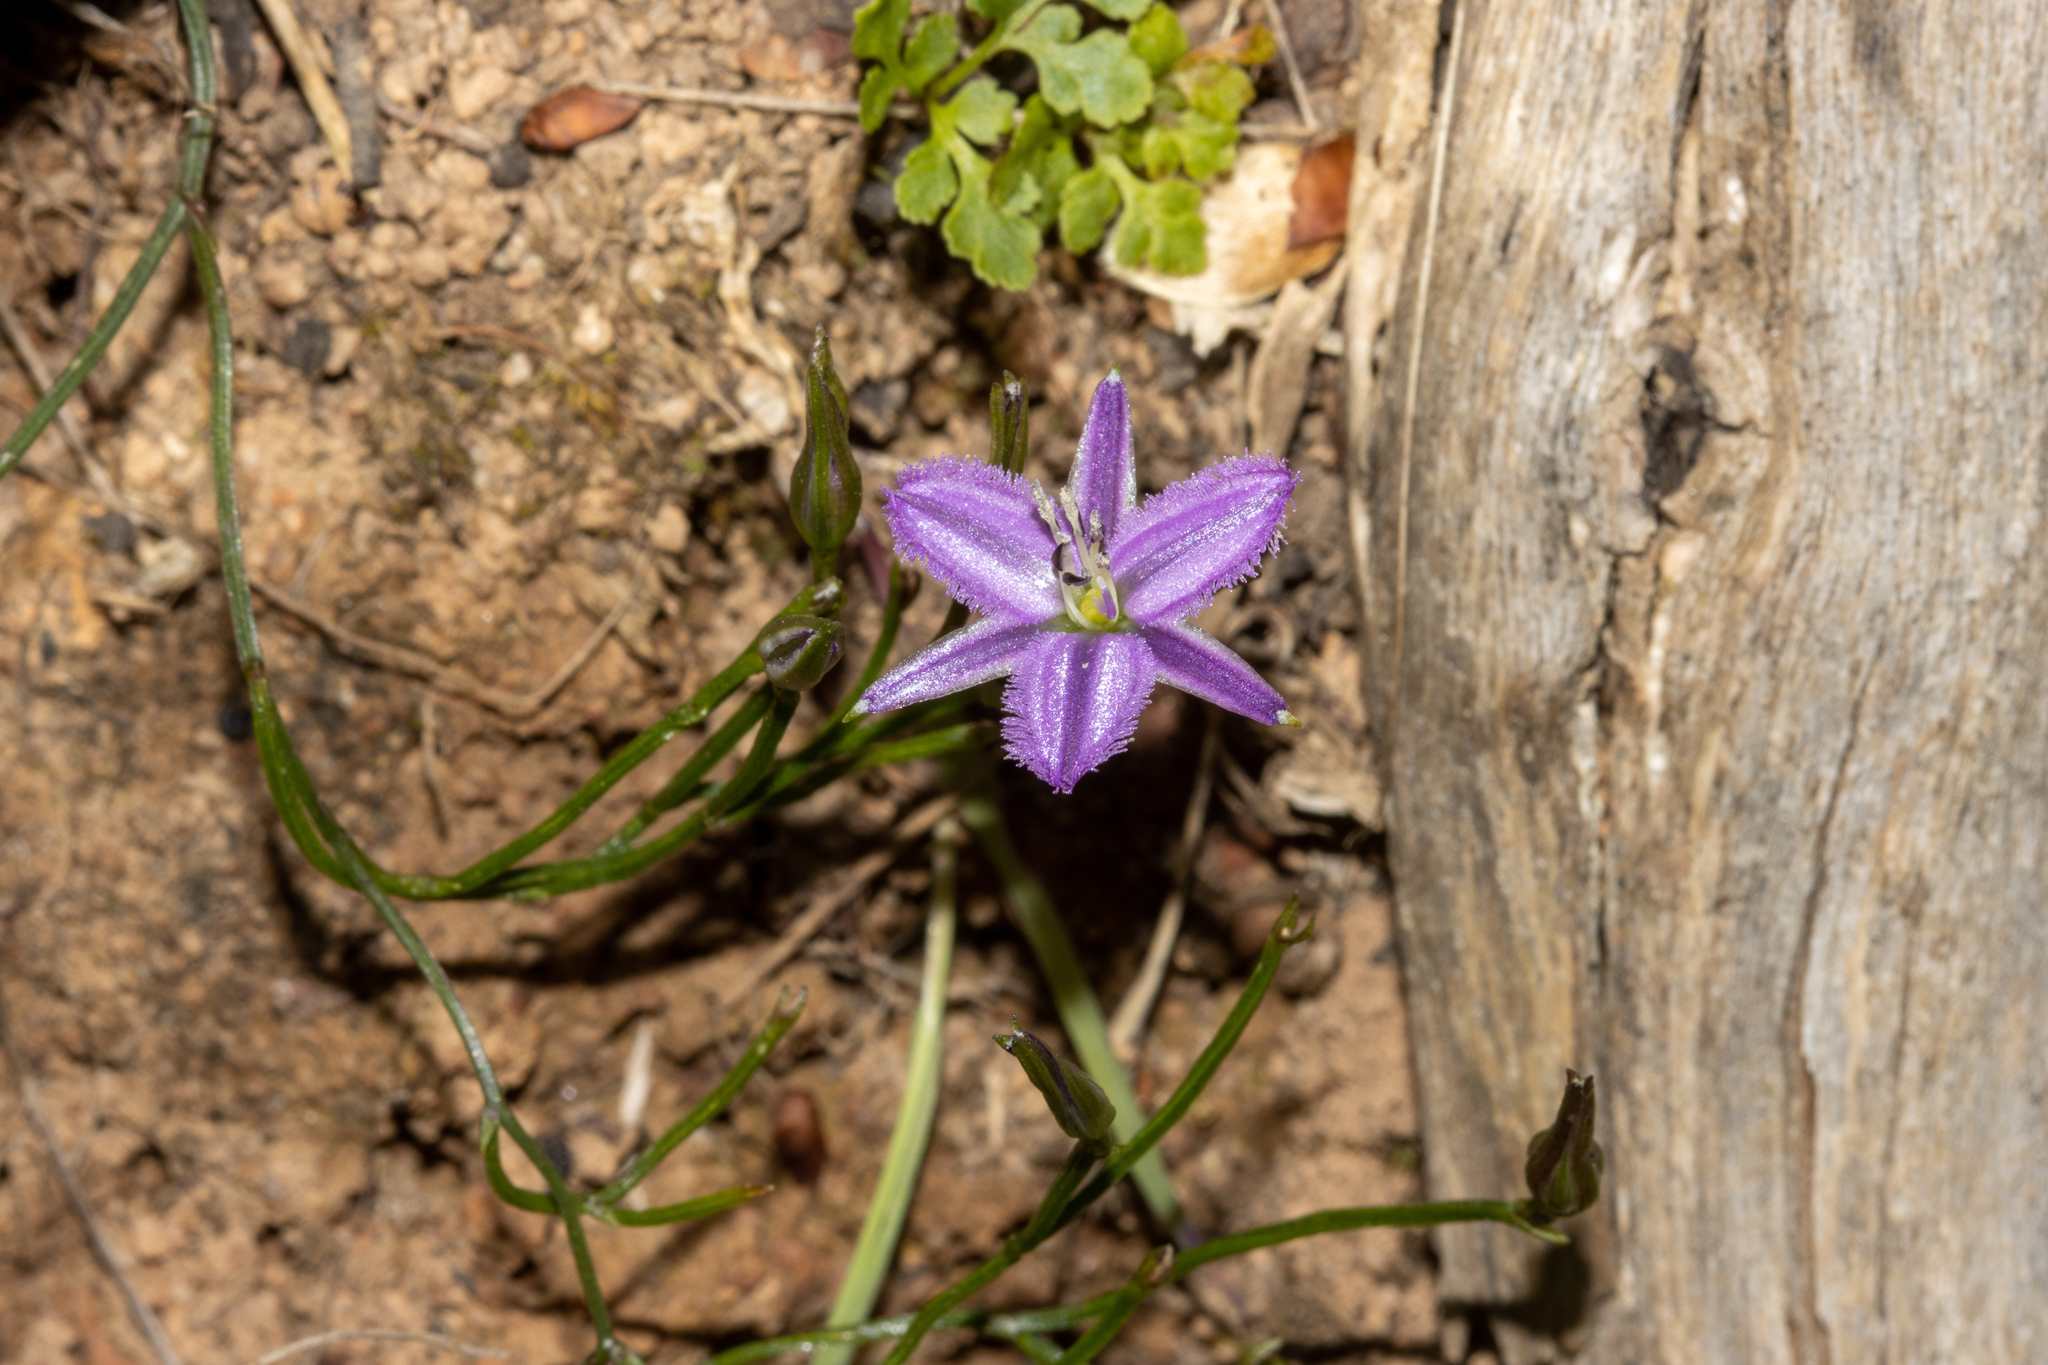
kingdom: Plantae
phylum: Tracheophyta
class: Liliopsida
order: Asparagales
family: Asparagaceae
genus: Thysanotus
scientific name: Thysanotus patersonii
